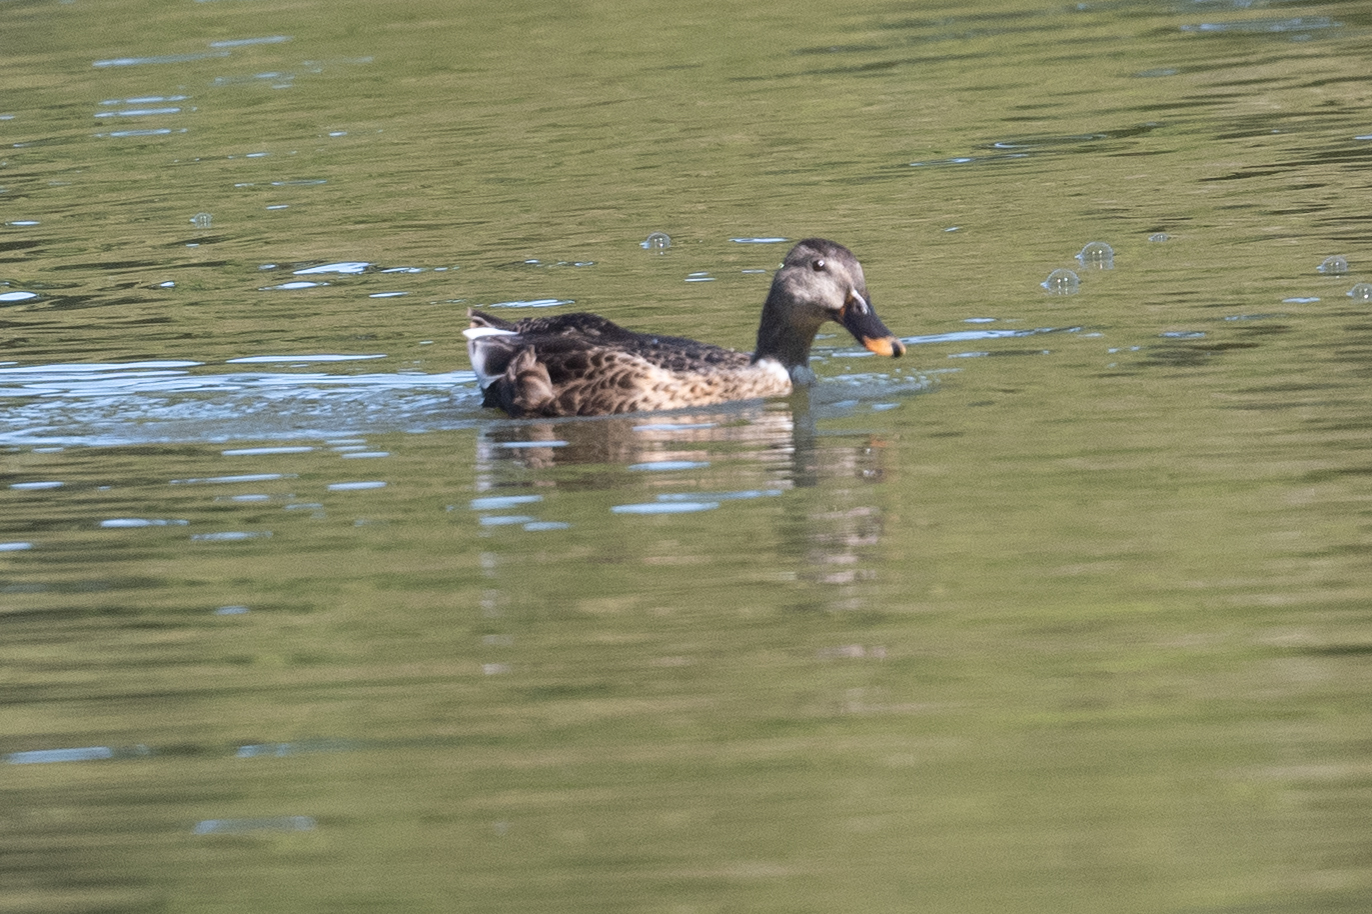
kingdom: Animalia
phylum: Chordata
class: Aves
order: Anseriformes
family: Anatidae
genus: Anas
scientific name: Anas platyrhynchos
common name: Mallard
